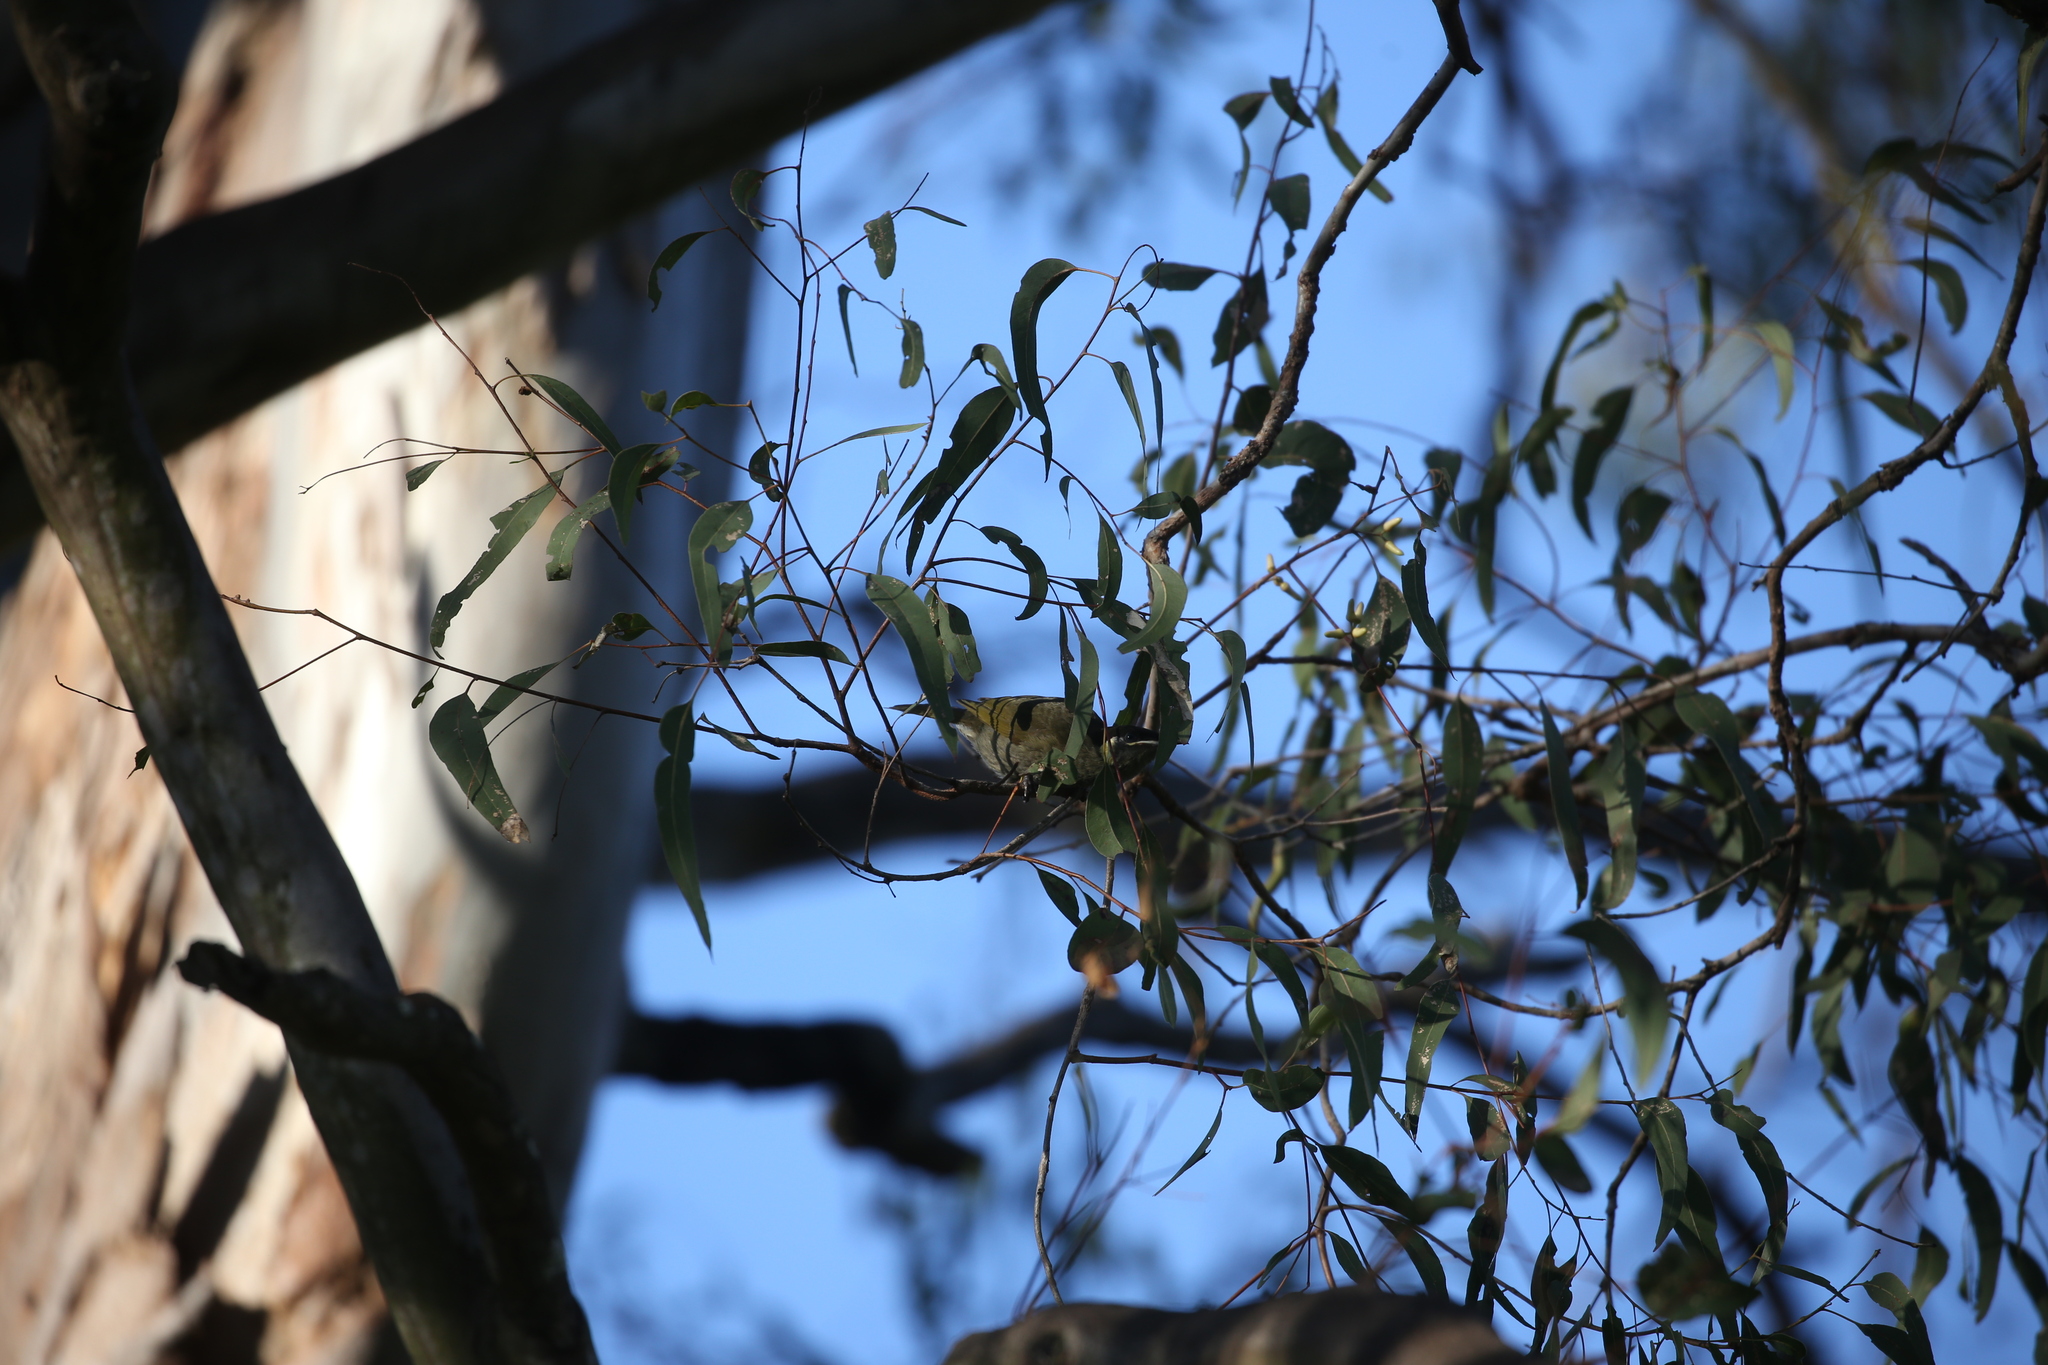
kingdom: Animalia
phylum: Chordata
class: Aves
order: Passeriformes
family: Meliphagidae
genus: Meliphaga
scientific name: Meliphaga lewinii
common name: Lewin's honeyeater
